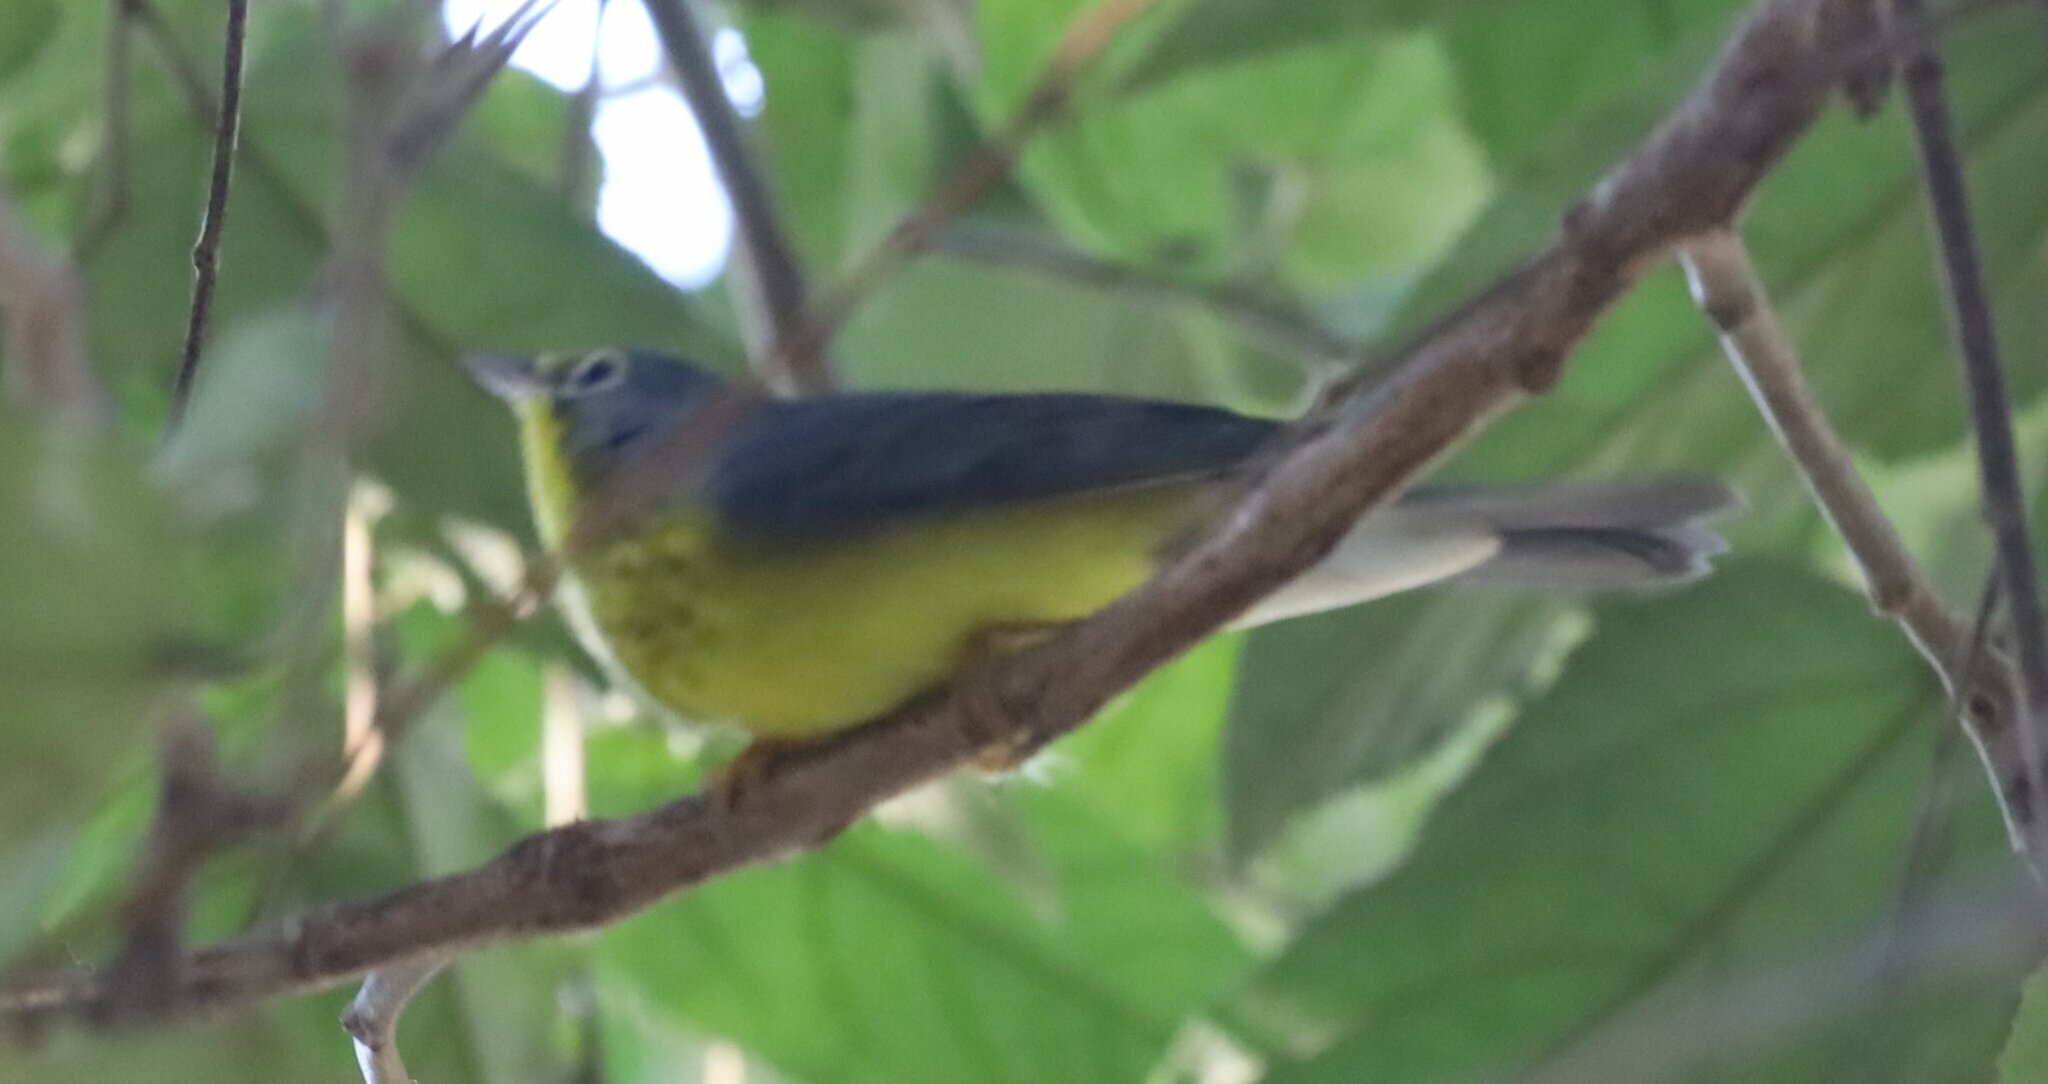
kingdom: Animalia
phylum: Chordata
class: Aves
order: Passeriformes
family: Parulidae
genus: Cardellina
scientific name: Cardellina canadensis
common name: Canada warbler
